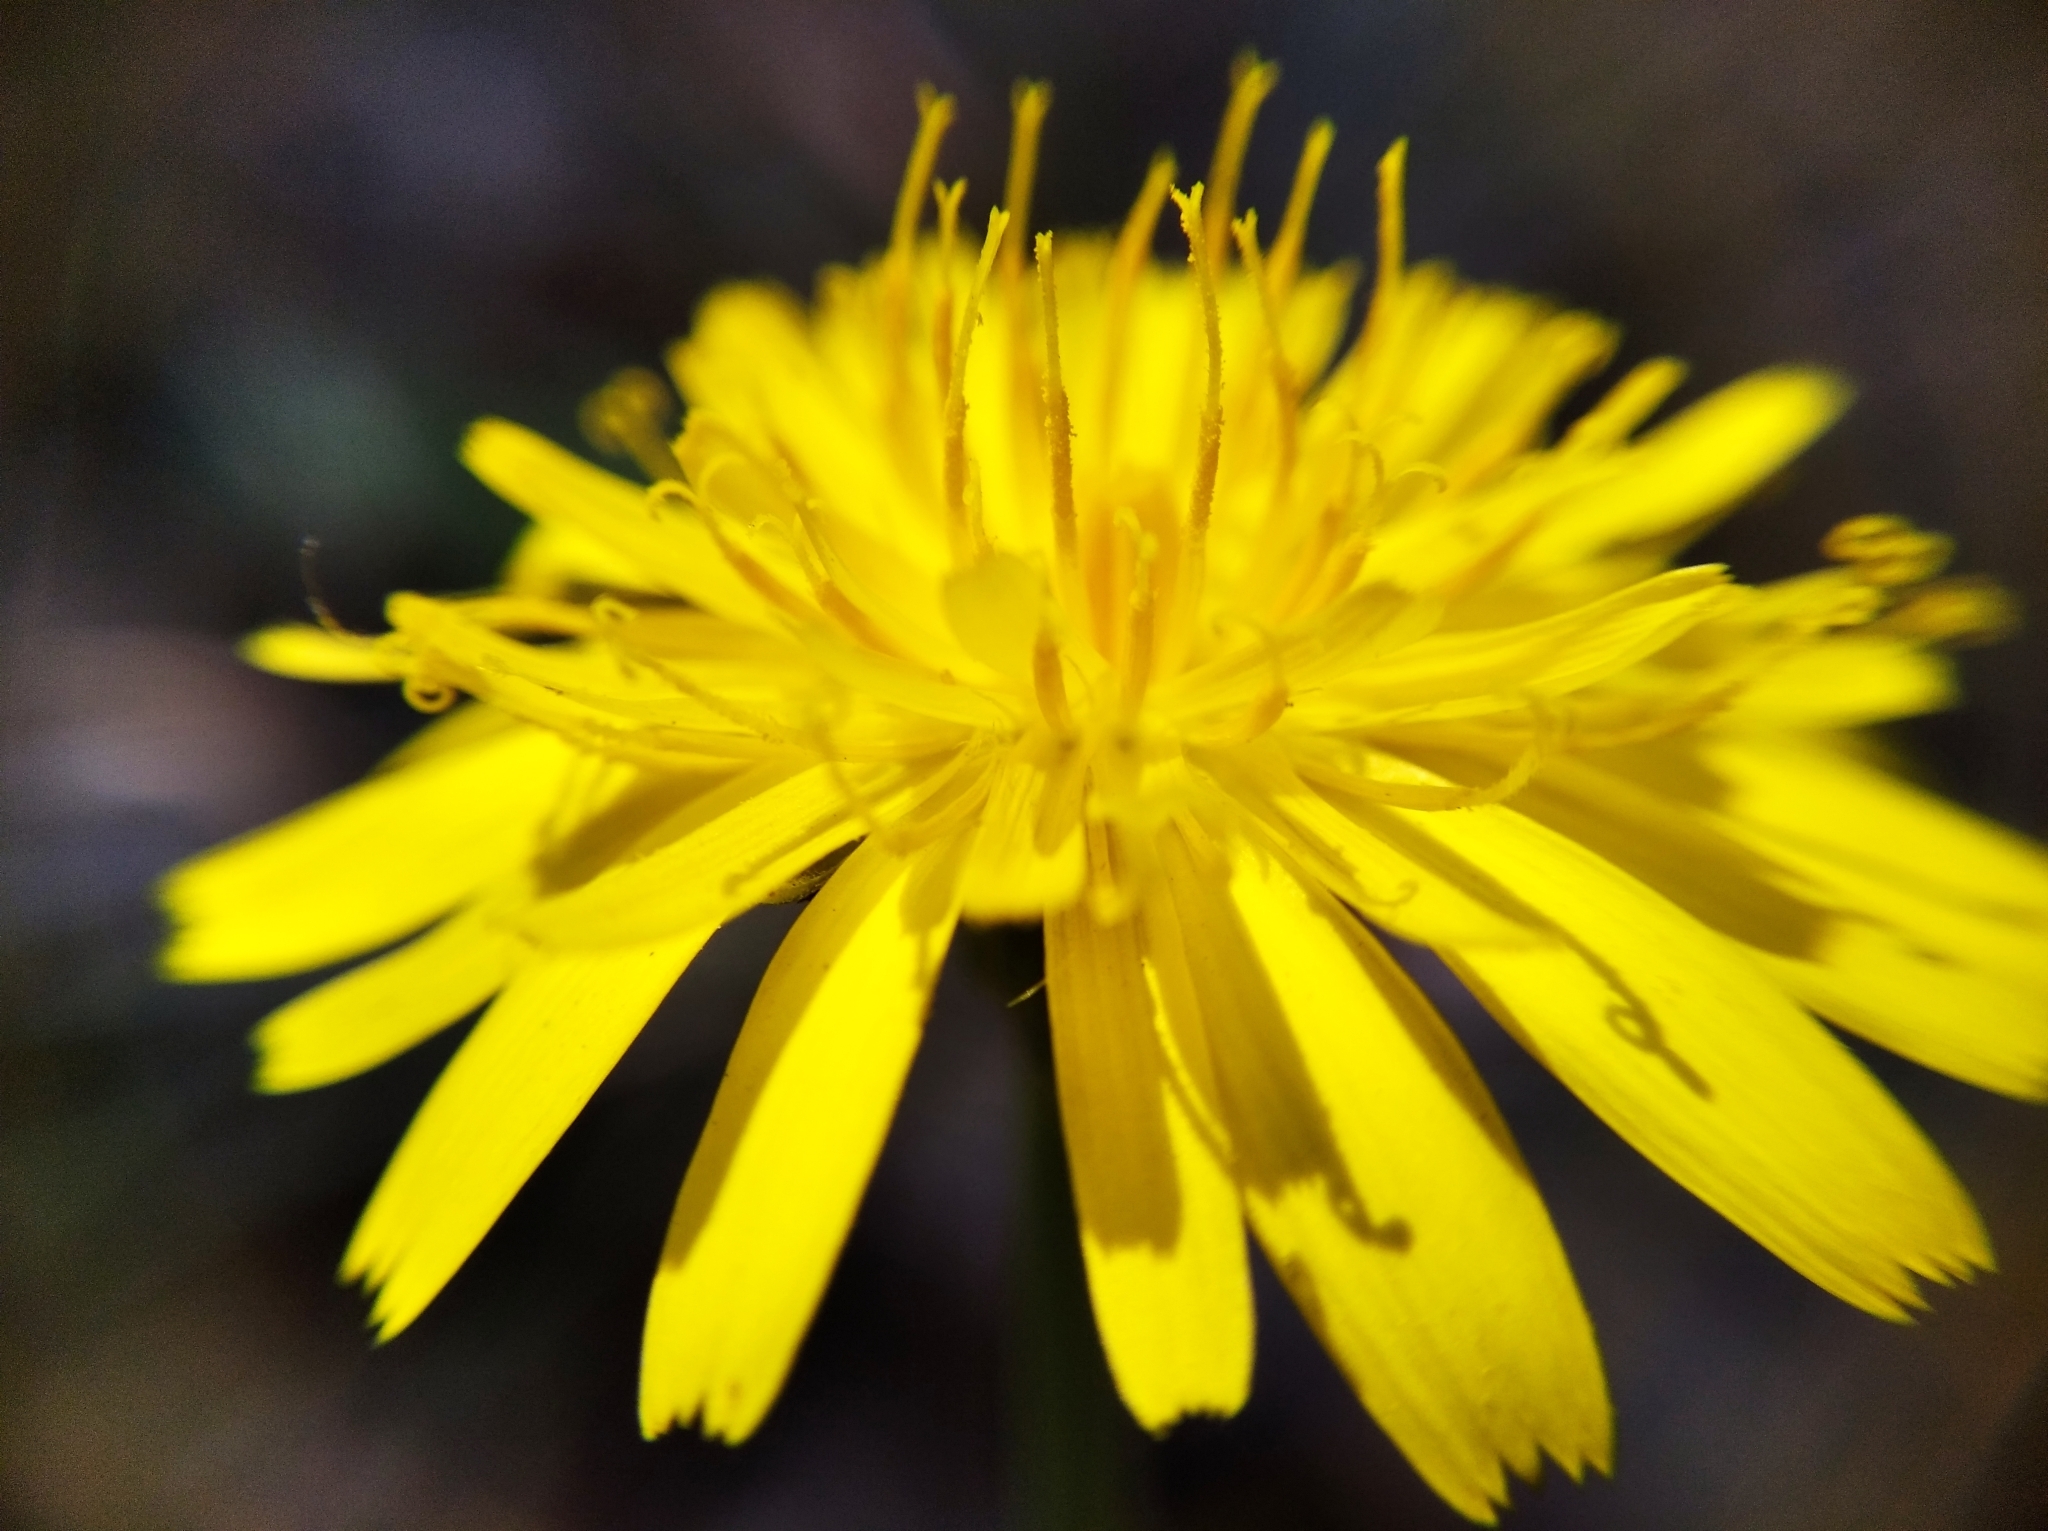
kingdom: Plantae
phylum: Tracheophyta
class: Magnoliopsida
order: Asterales
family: Asteraceae
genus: Hypochaeris
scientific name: Hypochaeris radicata
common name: Flatweed
